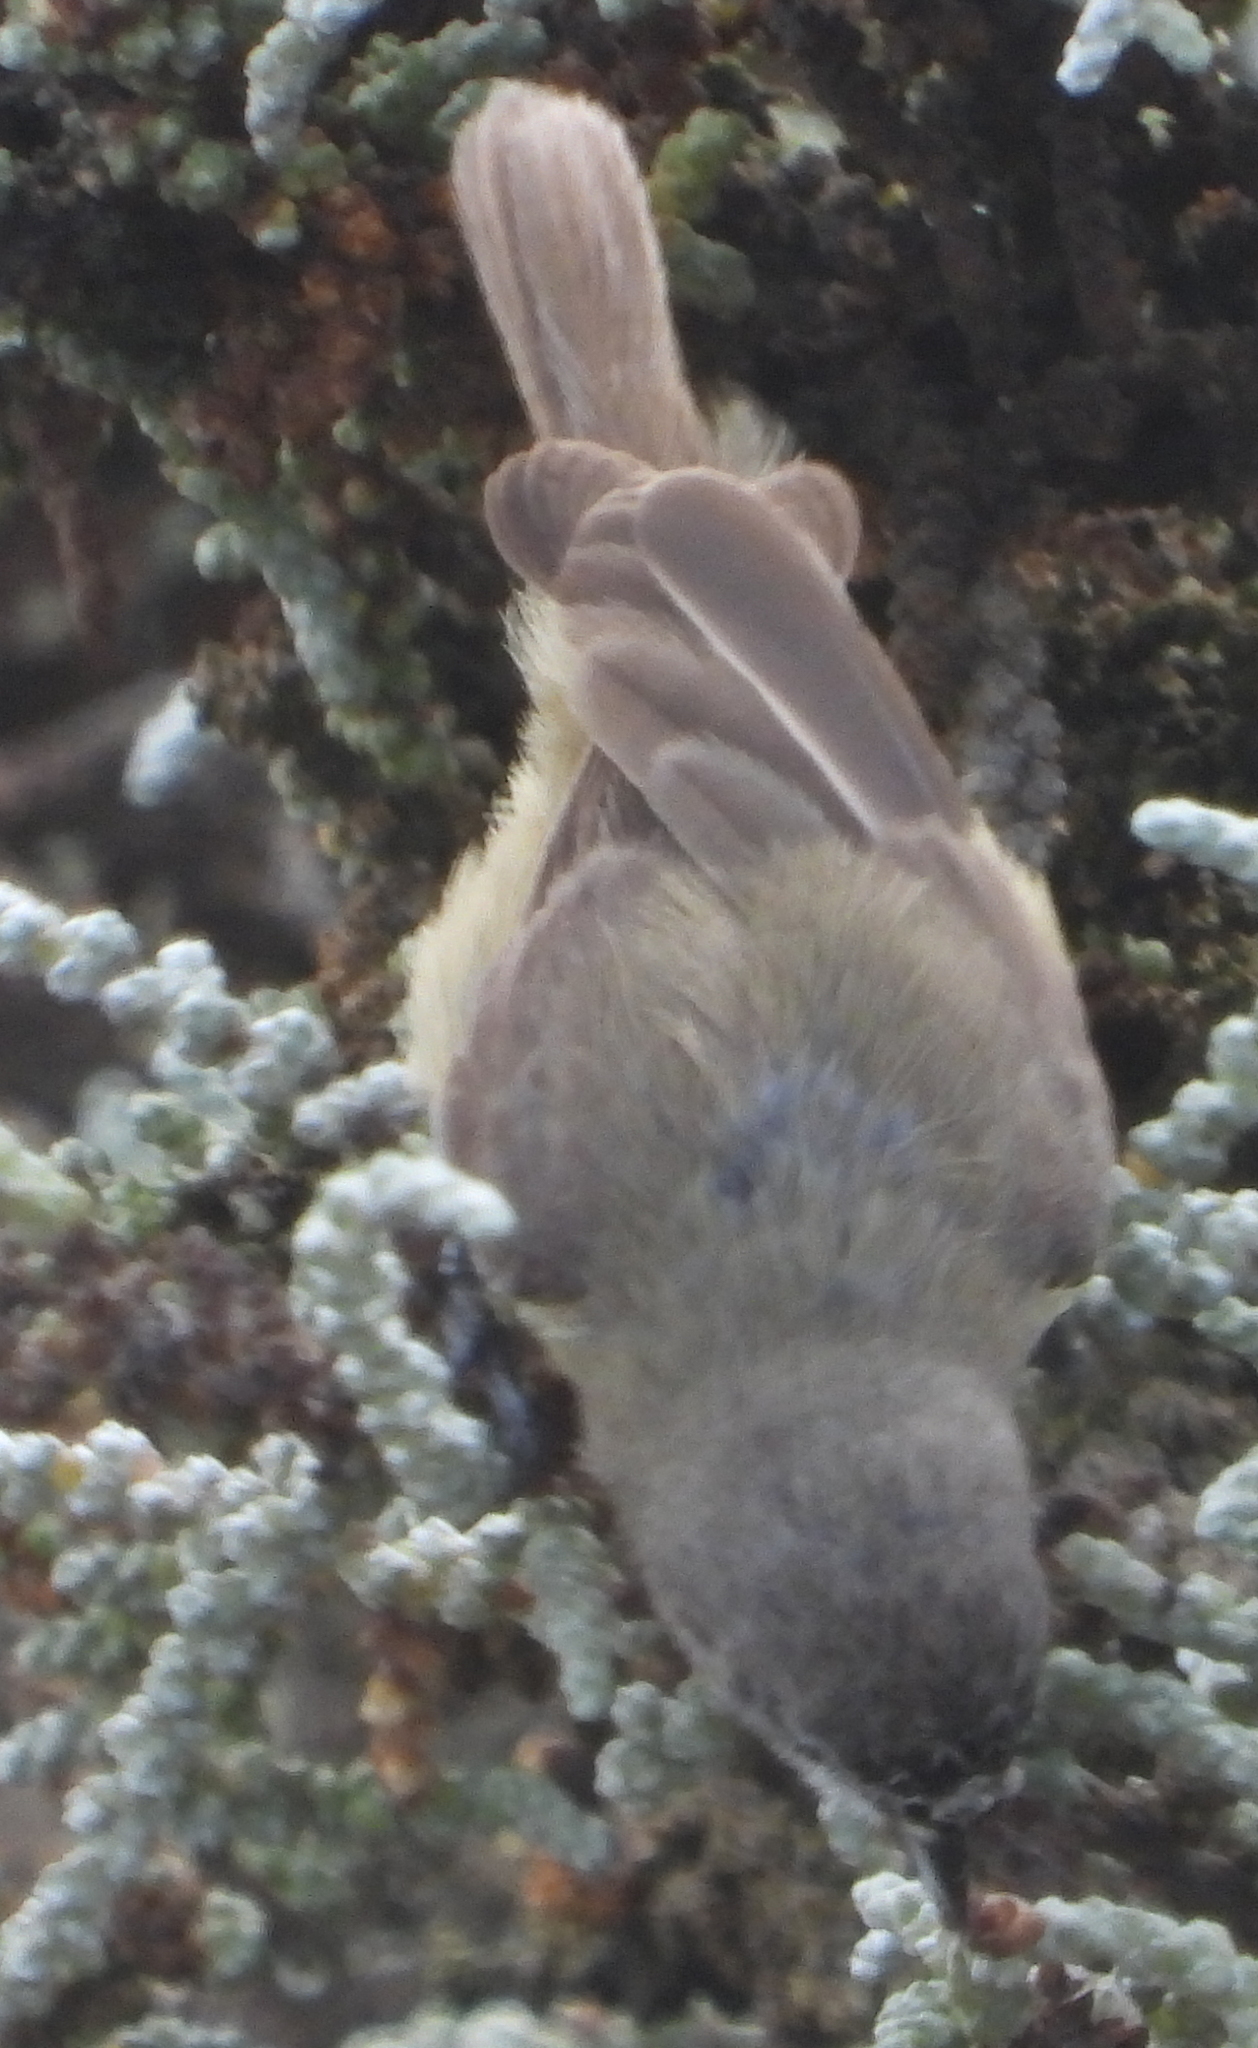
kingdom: Animalia
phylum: Chordata
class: Aves
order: Passeriformes
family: Remizidae
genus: Anthoscopus
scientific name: Anthoscopus minutus
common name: Cape penduline tit
